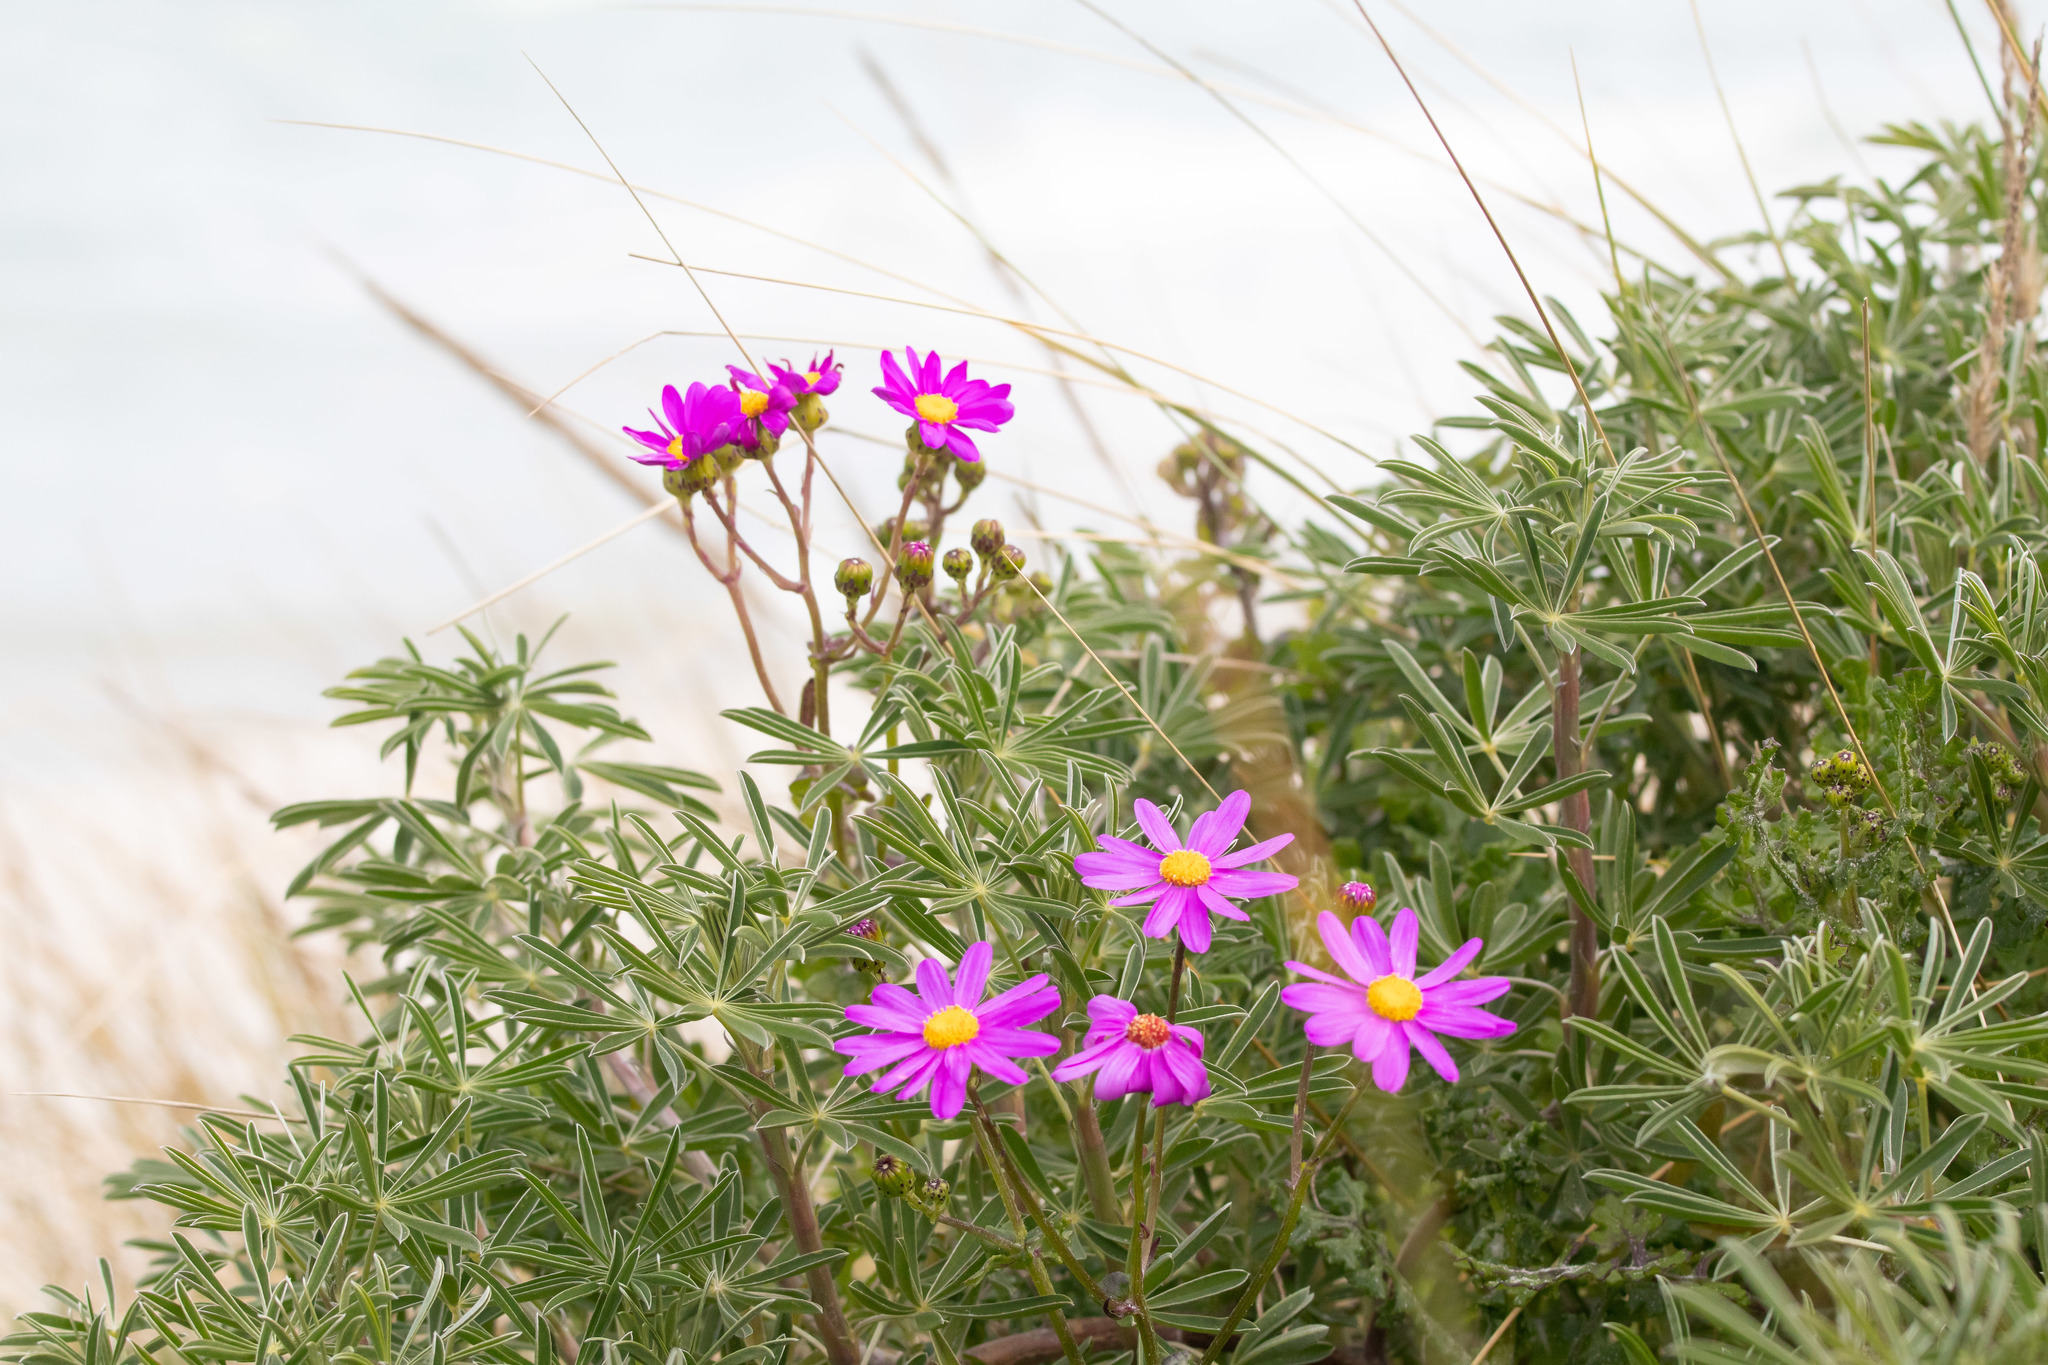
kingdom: Plantae
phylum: Tracheophyta
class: Magnoliopsida
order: Asterales
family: Asteraceae
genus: Senecio
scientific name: Senecio elegans
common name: Purple groundsel
